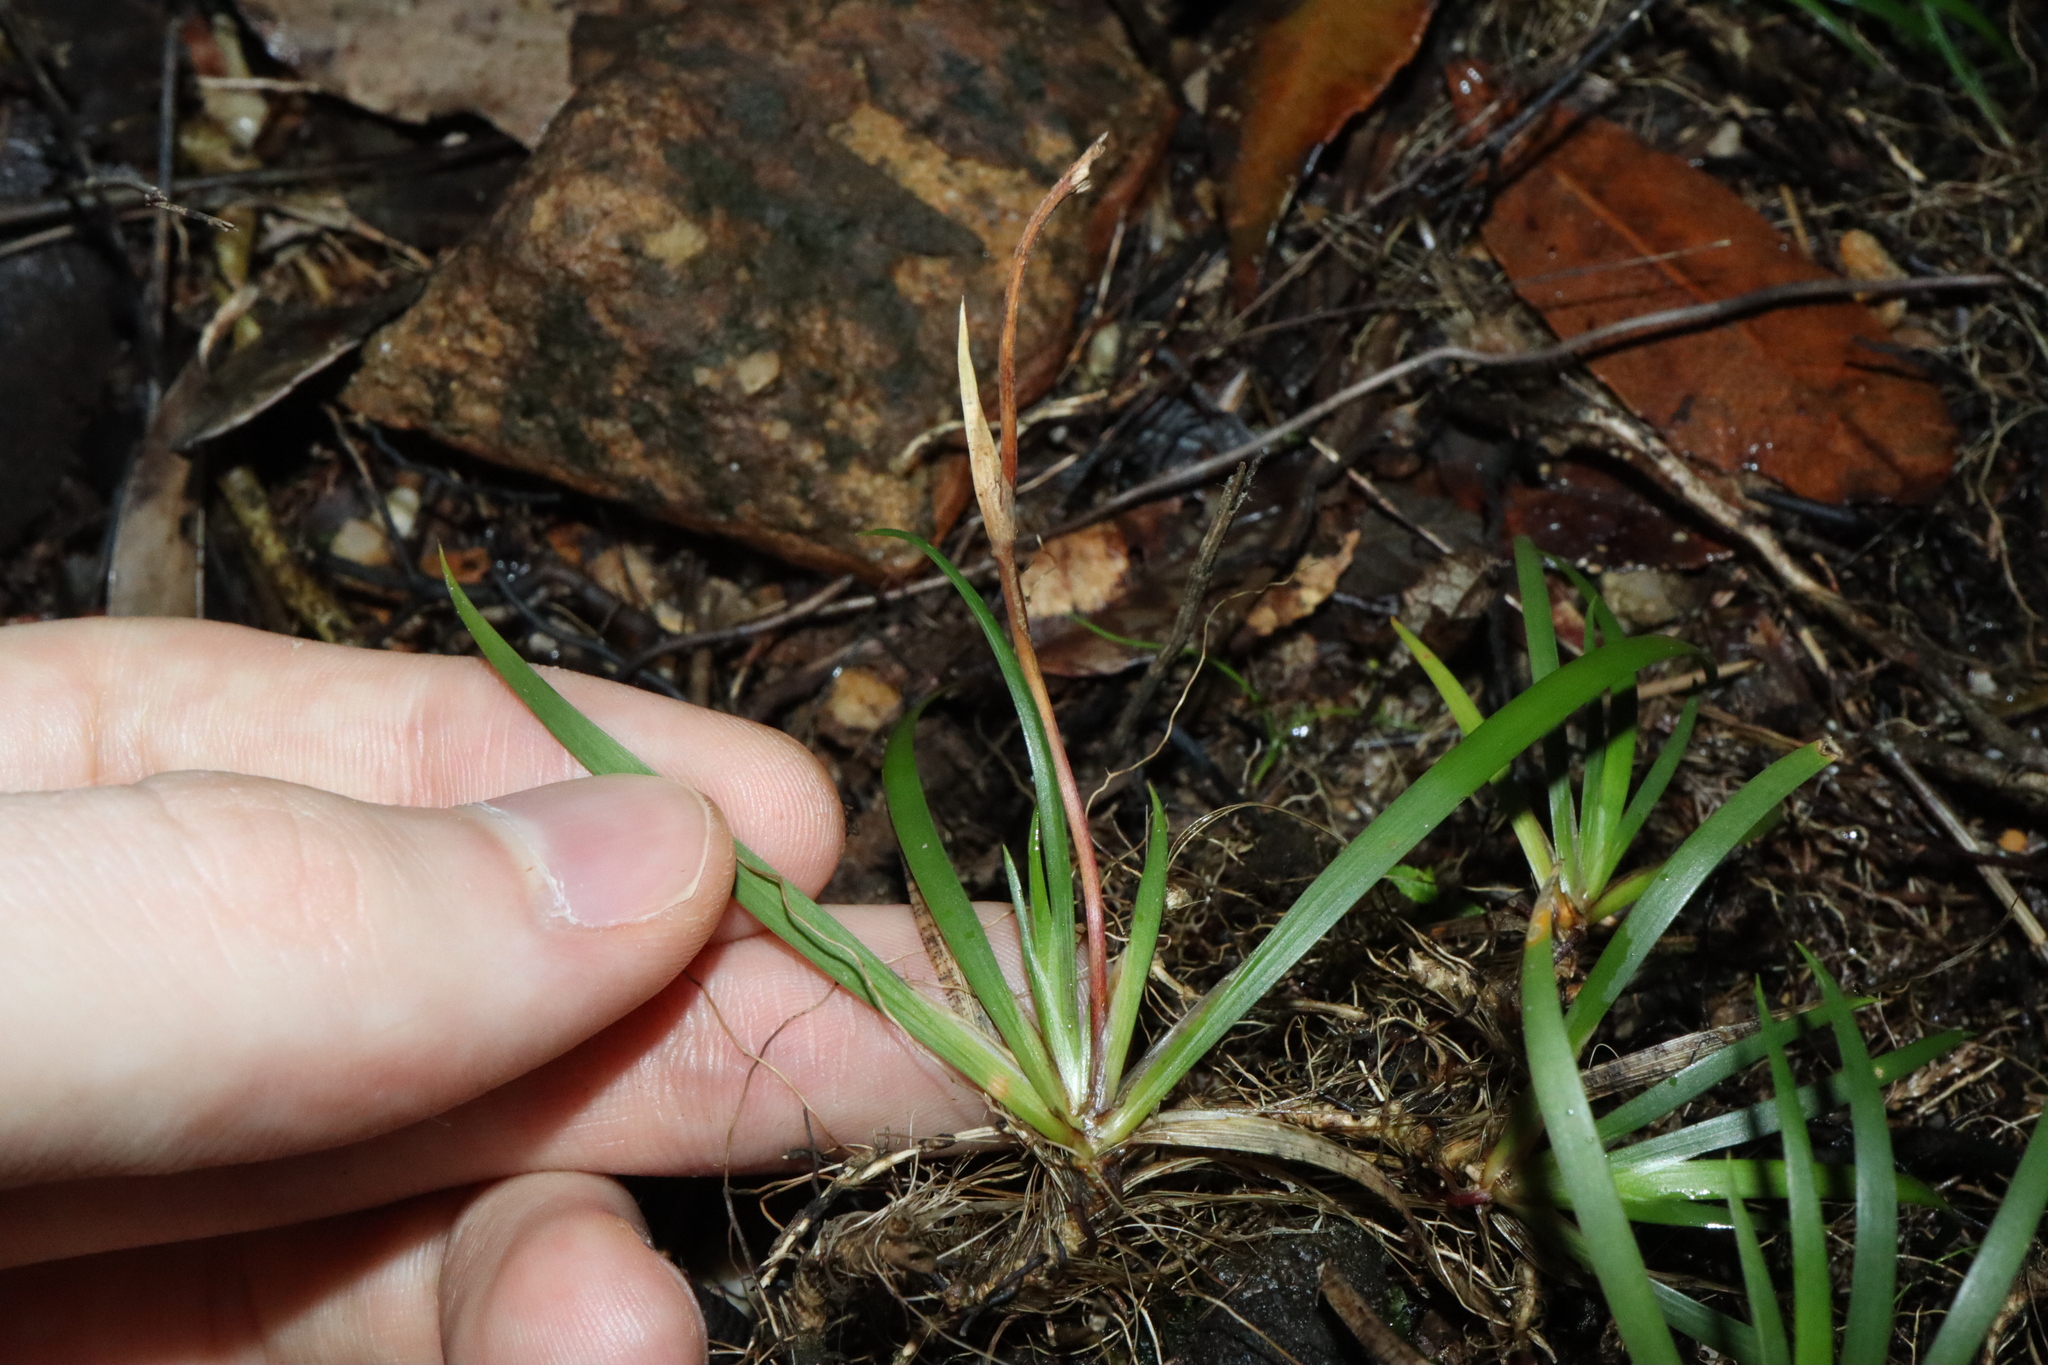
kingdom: Plantae
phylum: Tracheophyta
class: Liliopsida
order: Asparagales
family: Iridaceae
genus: Libertia
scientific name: Libertia pulchella
